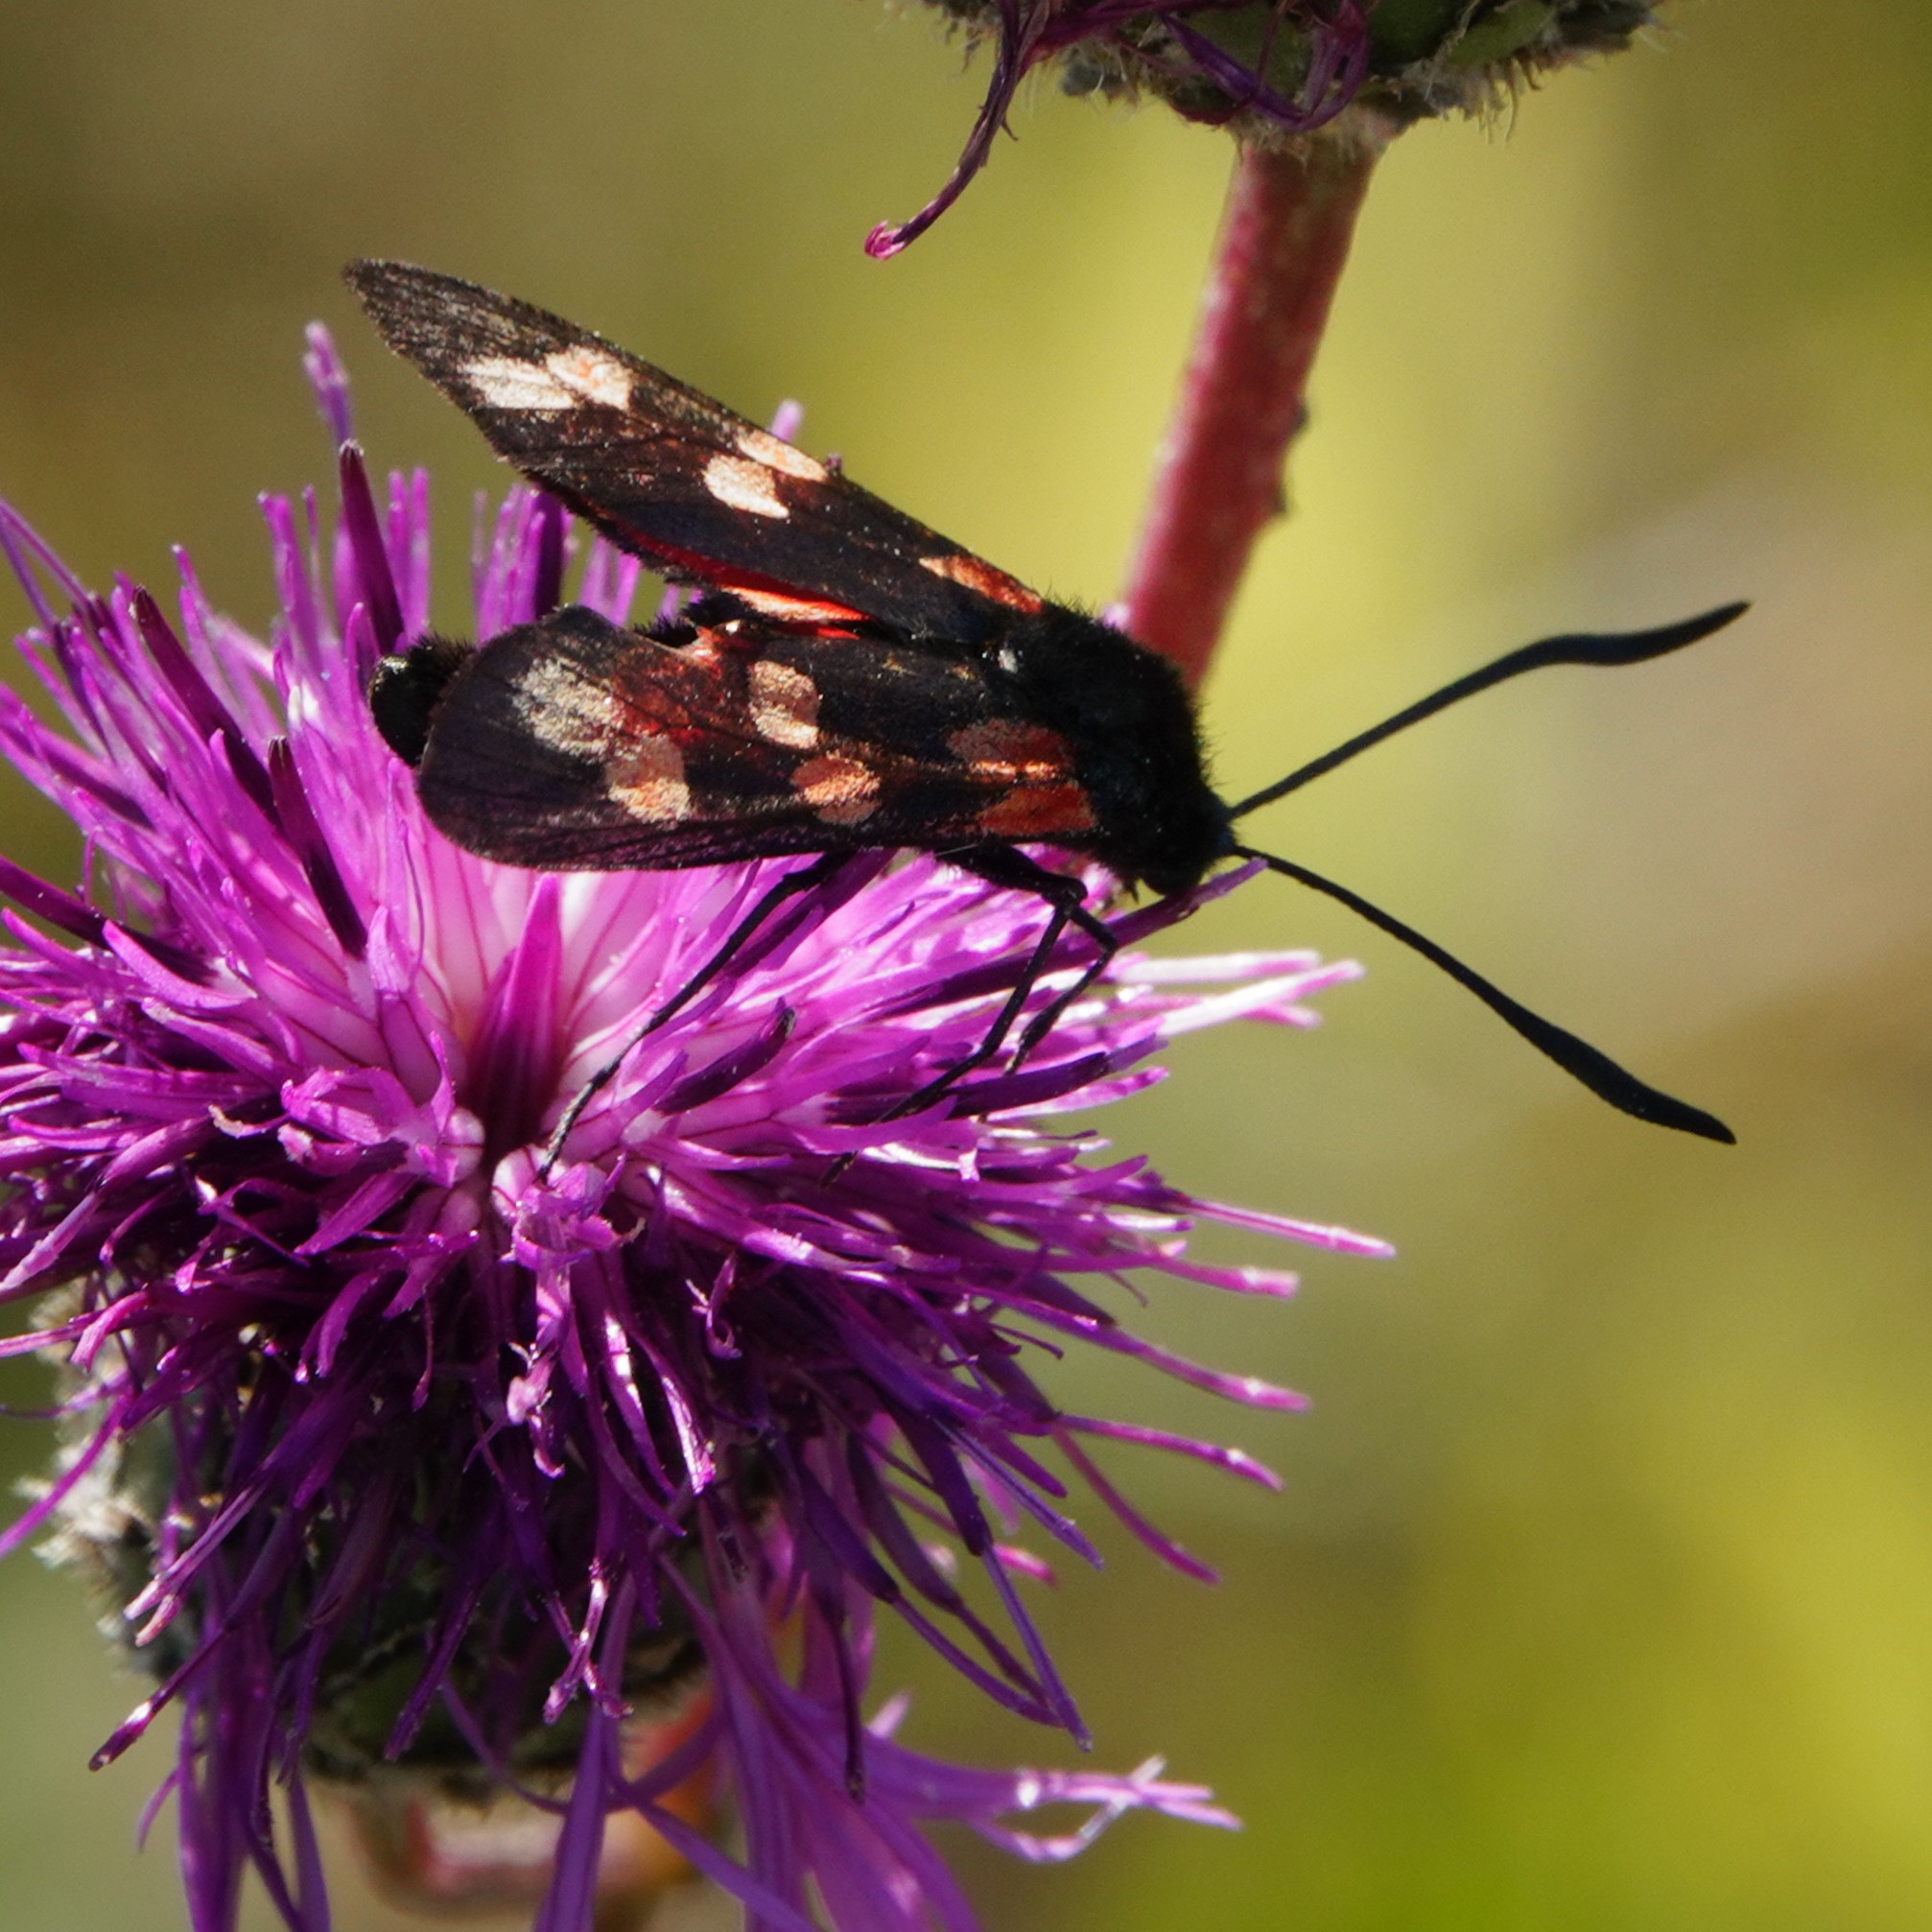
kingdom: Animalia
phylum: Arthropoda
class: Insecta
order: Lepidoptera
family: Zygaenidae
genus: Zygaena
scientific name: Zygaena filipendulae
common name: Six-spot burnet
